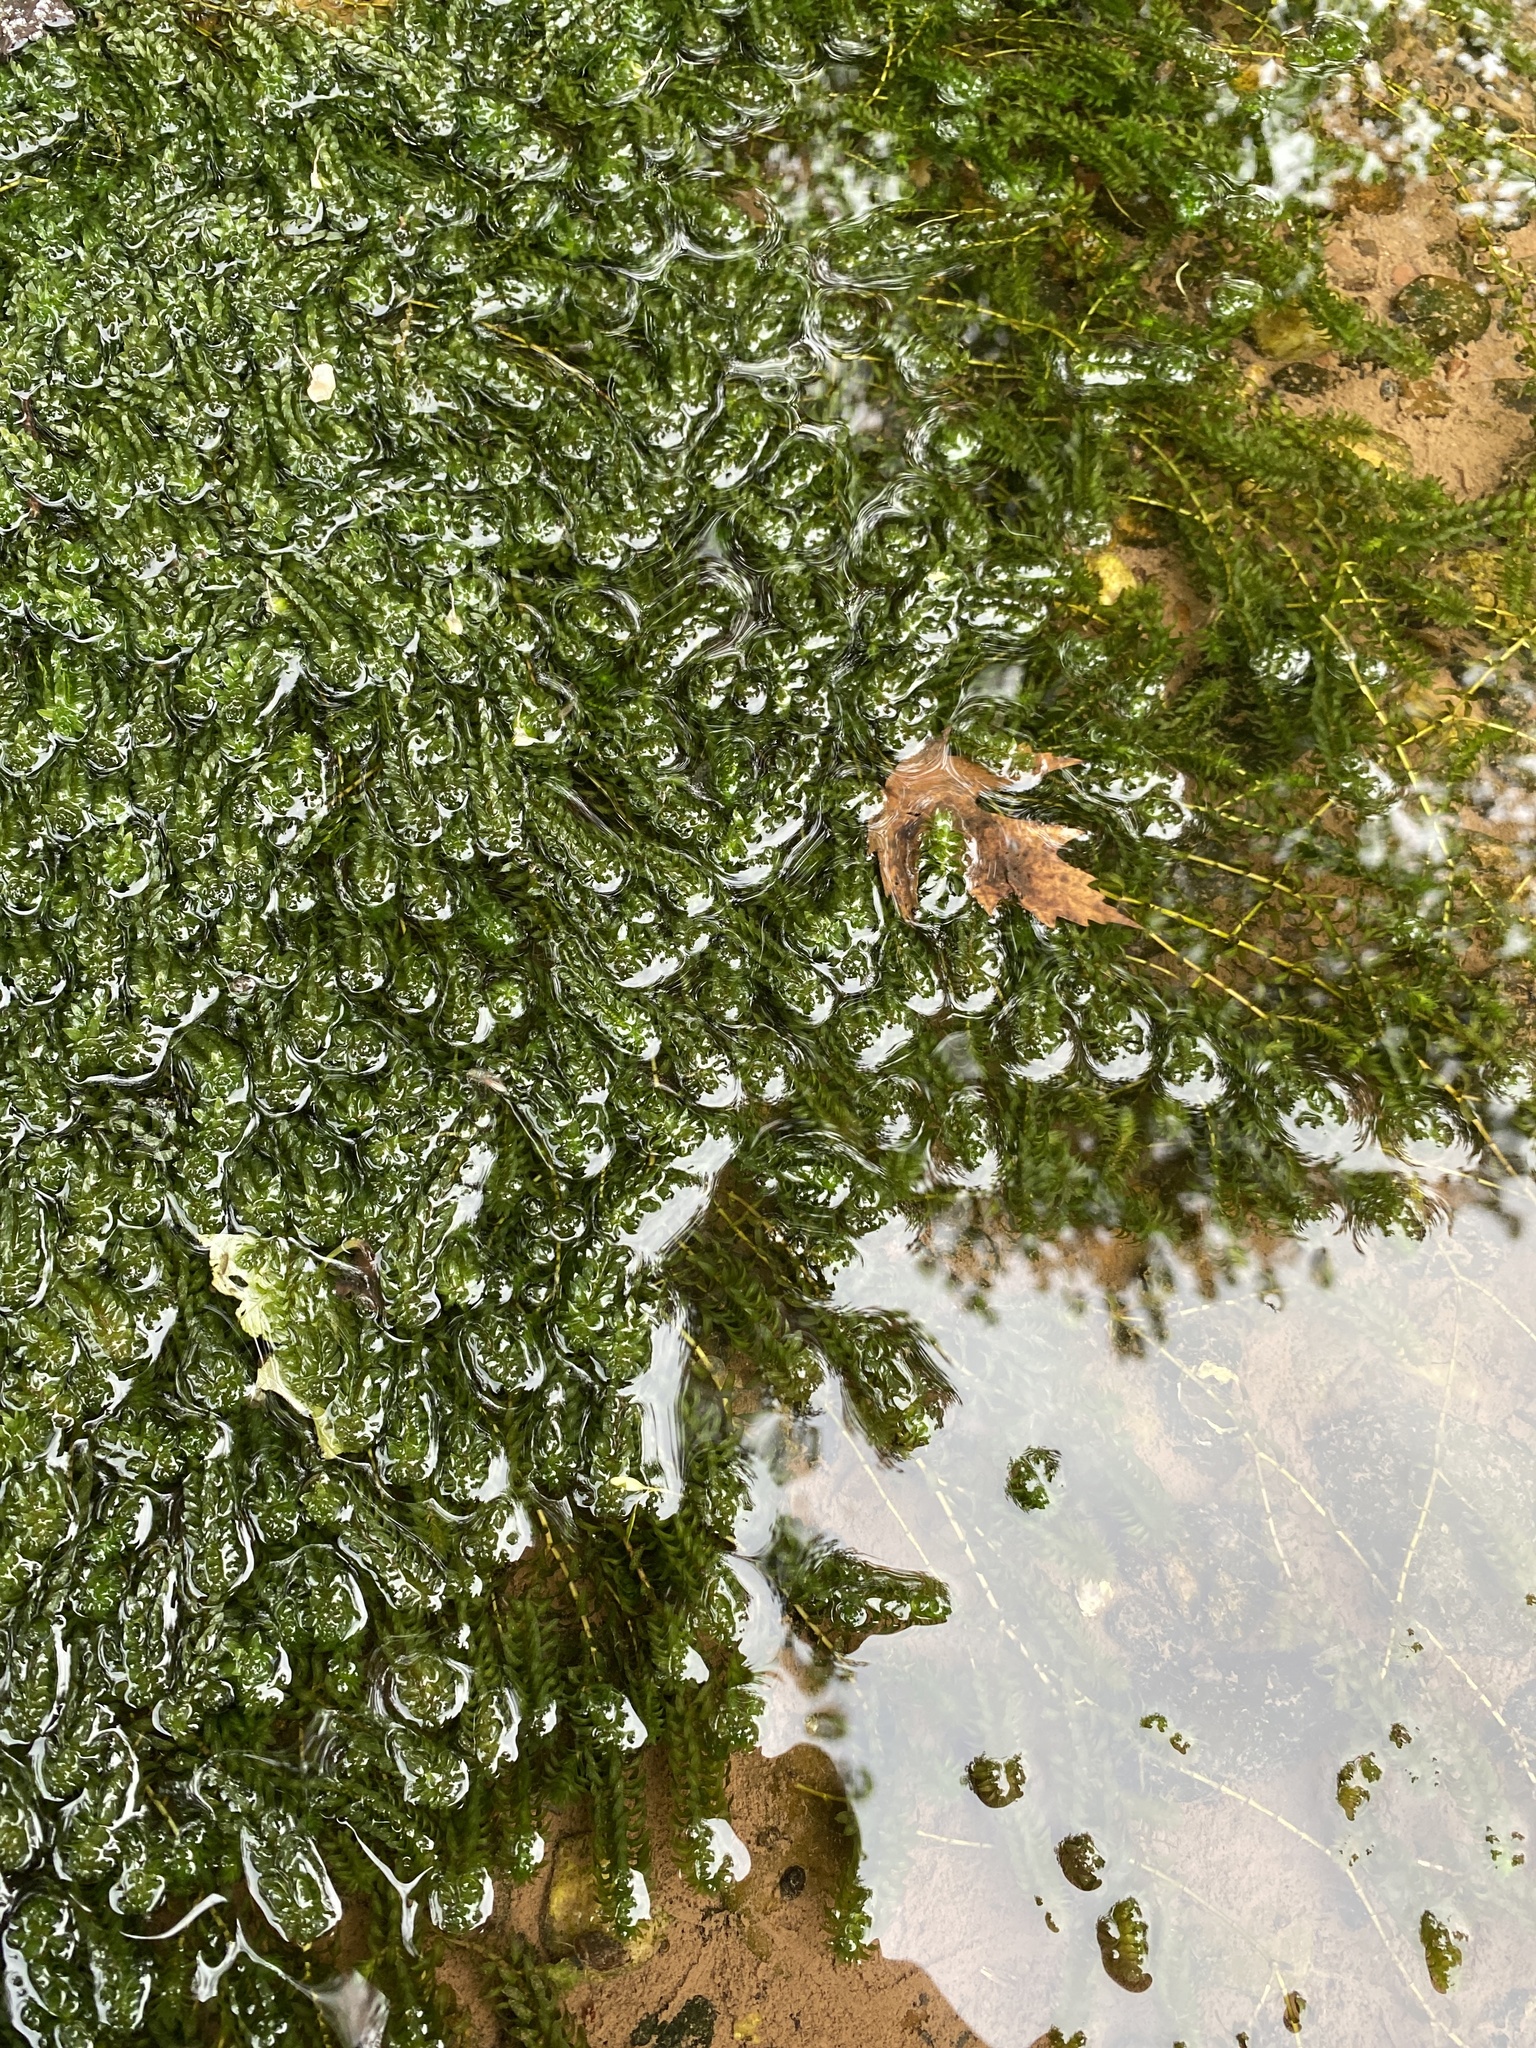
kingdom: Plantae
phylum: Tracheophyta
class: Liliopsida
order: Alismatales
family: Hydrocharitaceae
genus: Elodea
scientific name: Elodea canadensis
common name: Canadian waterweed
